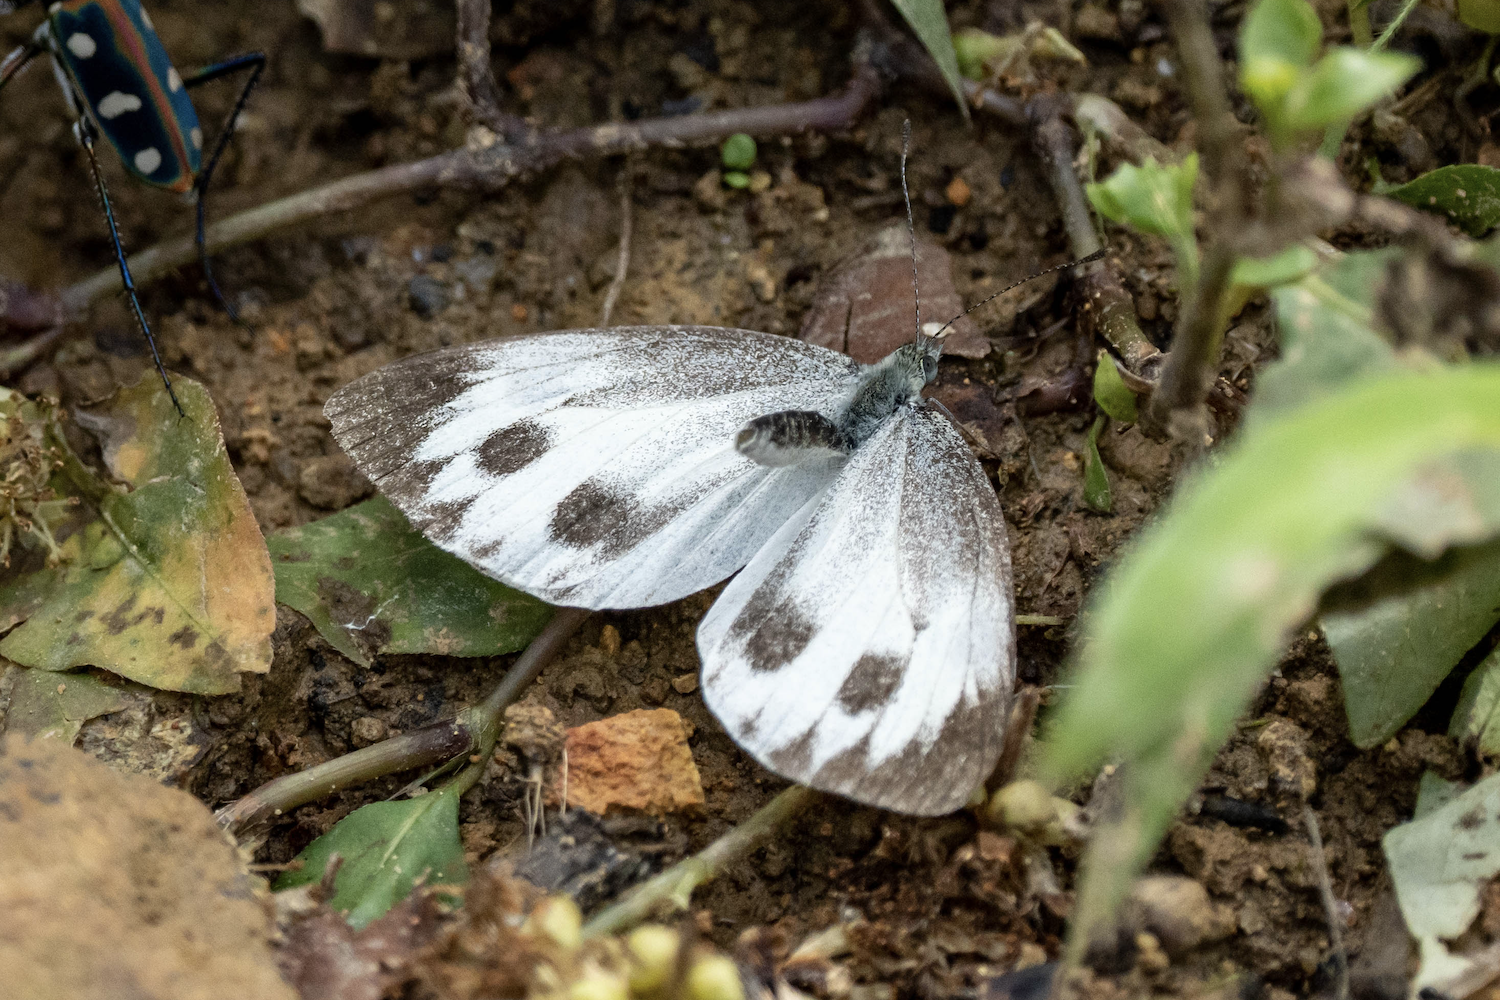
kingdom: Animalia
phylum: Arthropoda
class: Insecta
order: Lepidoptera
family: Pieridae
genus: Pieris
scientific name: Pieris canidia
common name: Indian cabbage white
